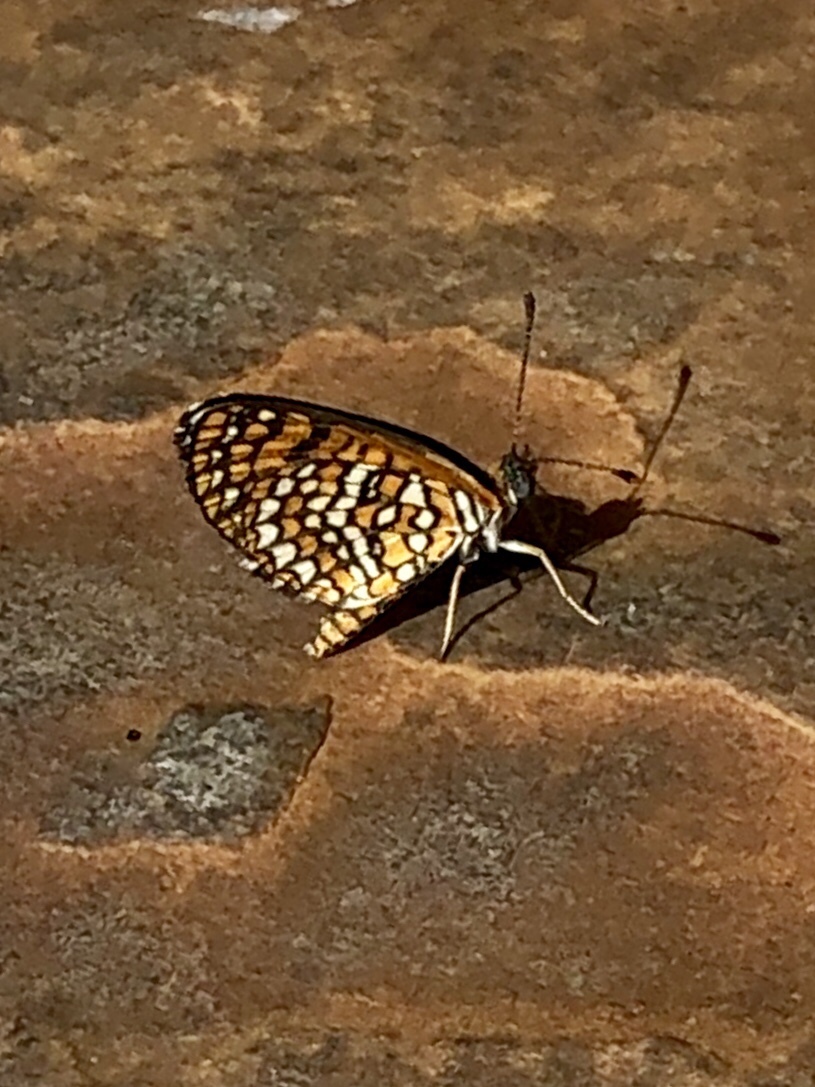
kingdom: Animalia
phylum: Arthropoda
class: Insecta
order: Lepidoptera
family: Nymphalidae
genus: Texola
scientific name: Texola
